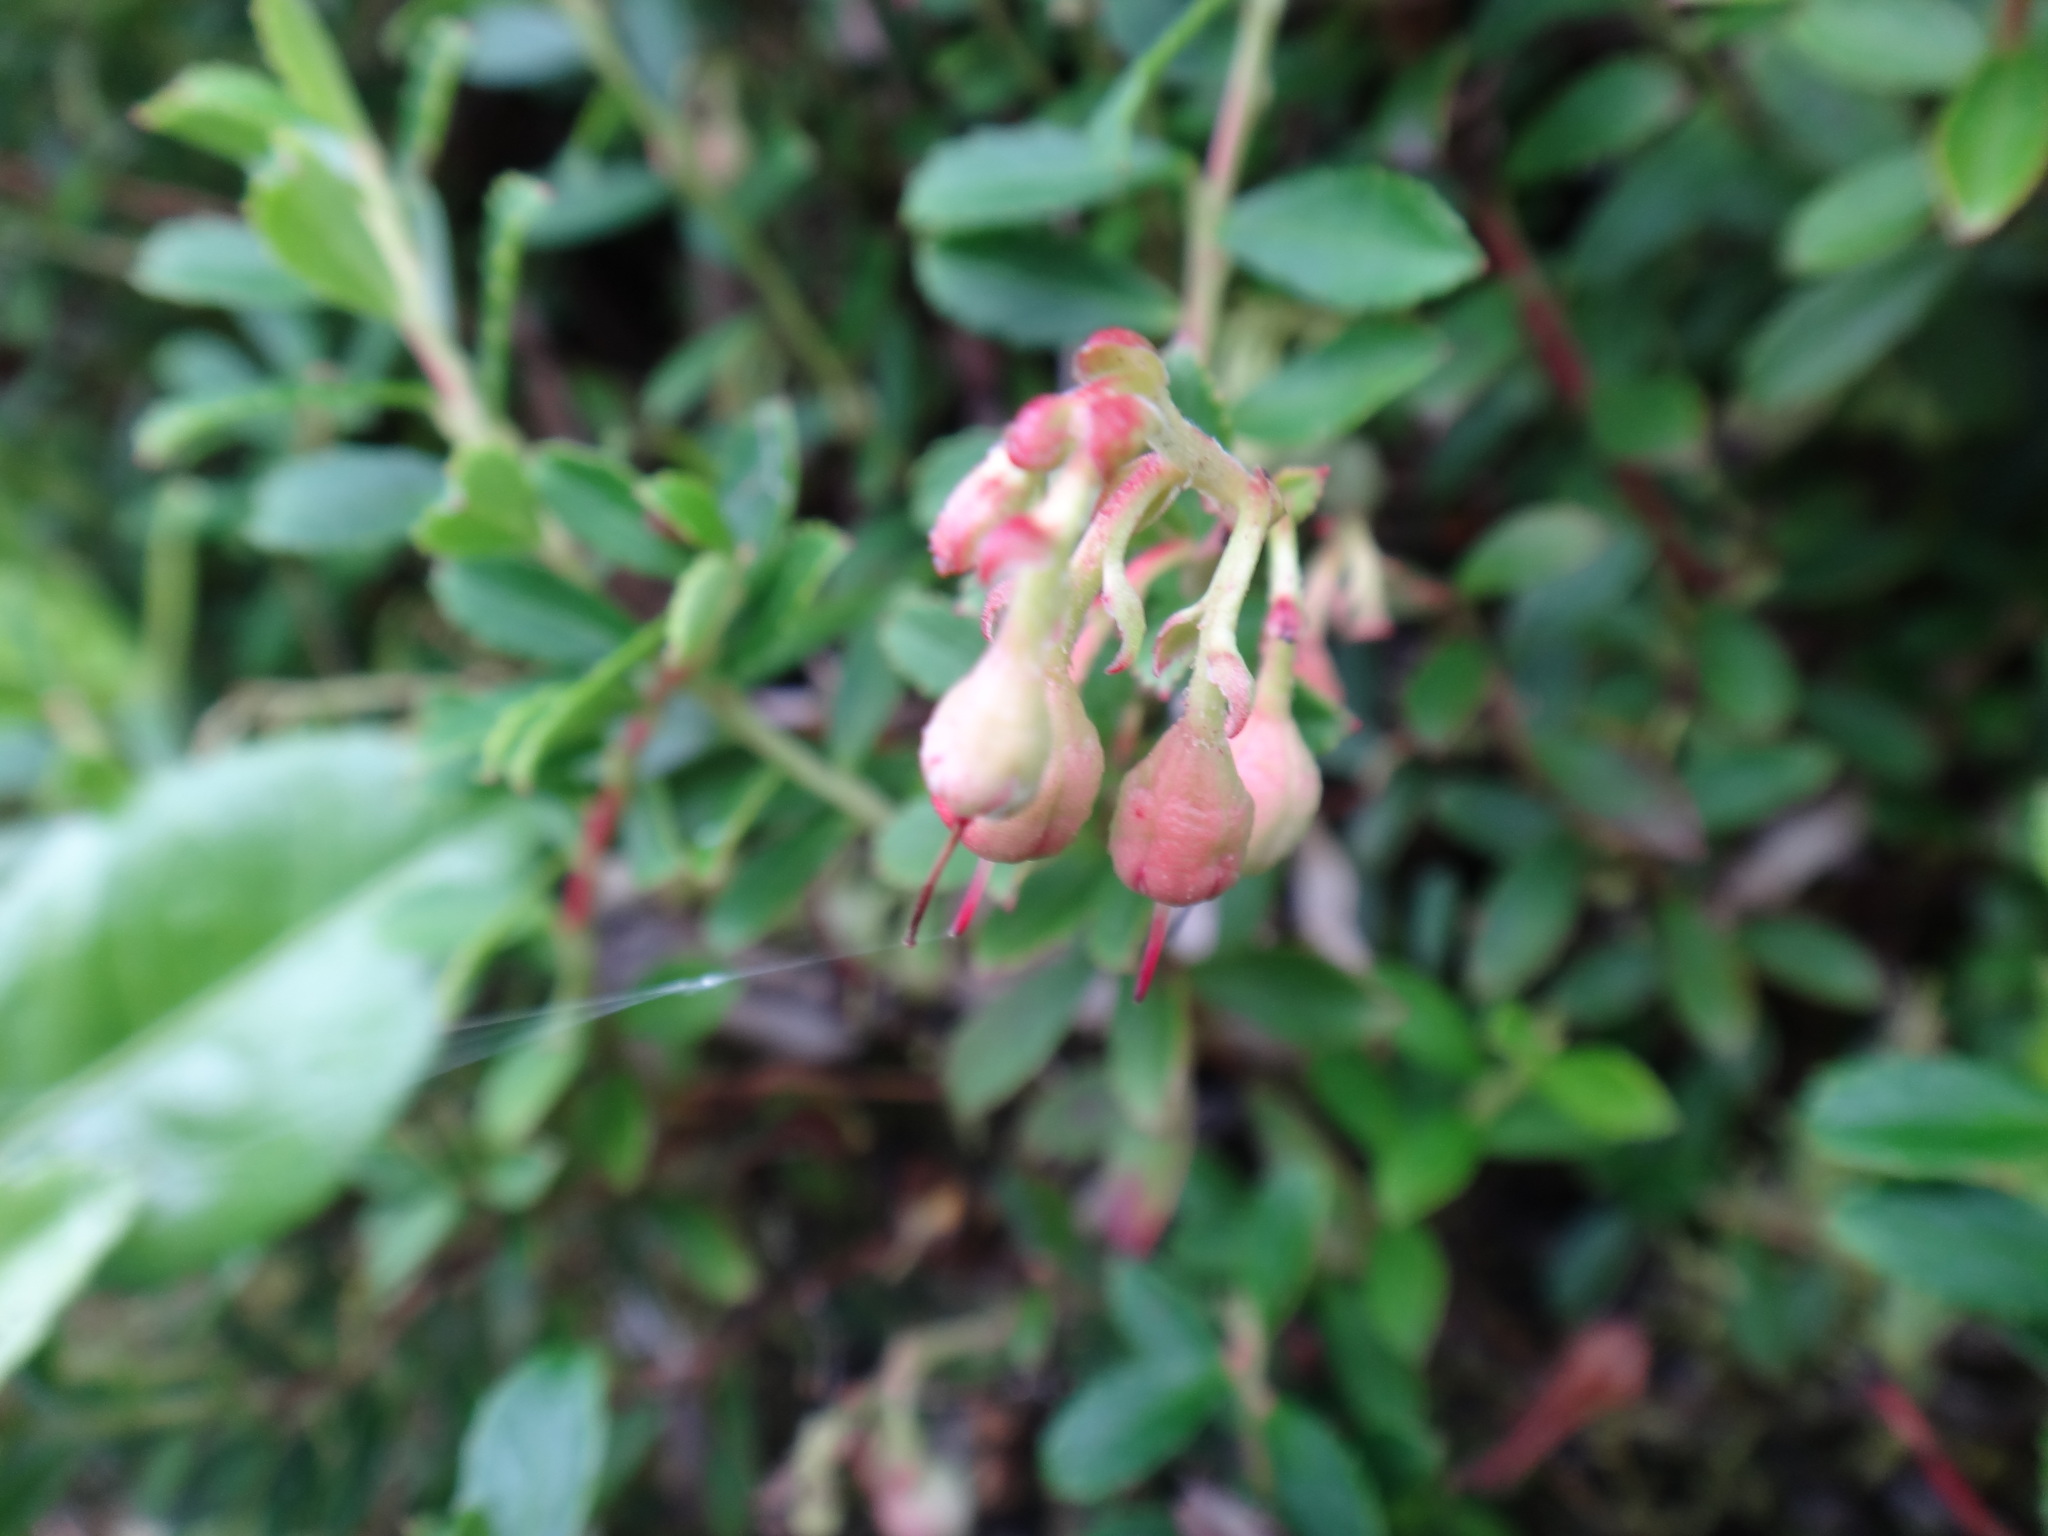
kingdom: Plantae
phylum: Tracheophyta
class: Magnoliopsida
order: Ericales
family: Ericaceae
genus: Gaultheria
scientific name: Gaultheria borneensis
